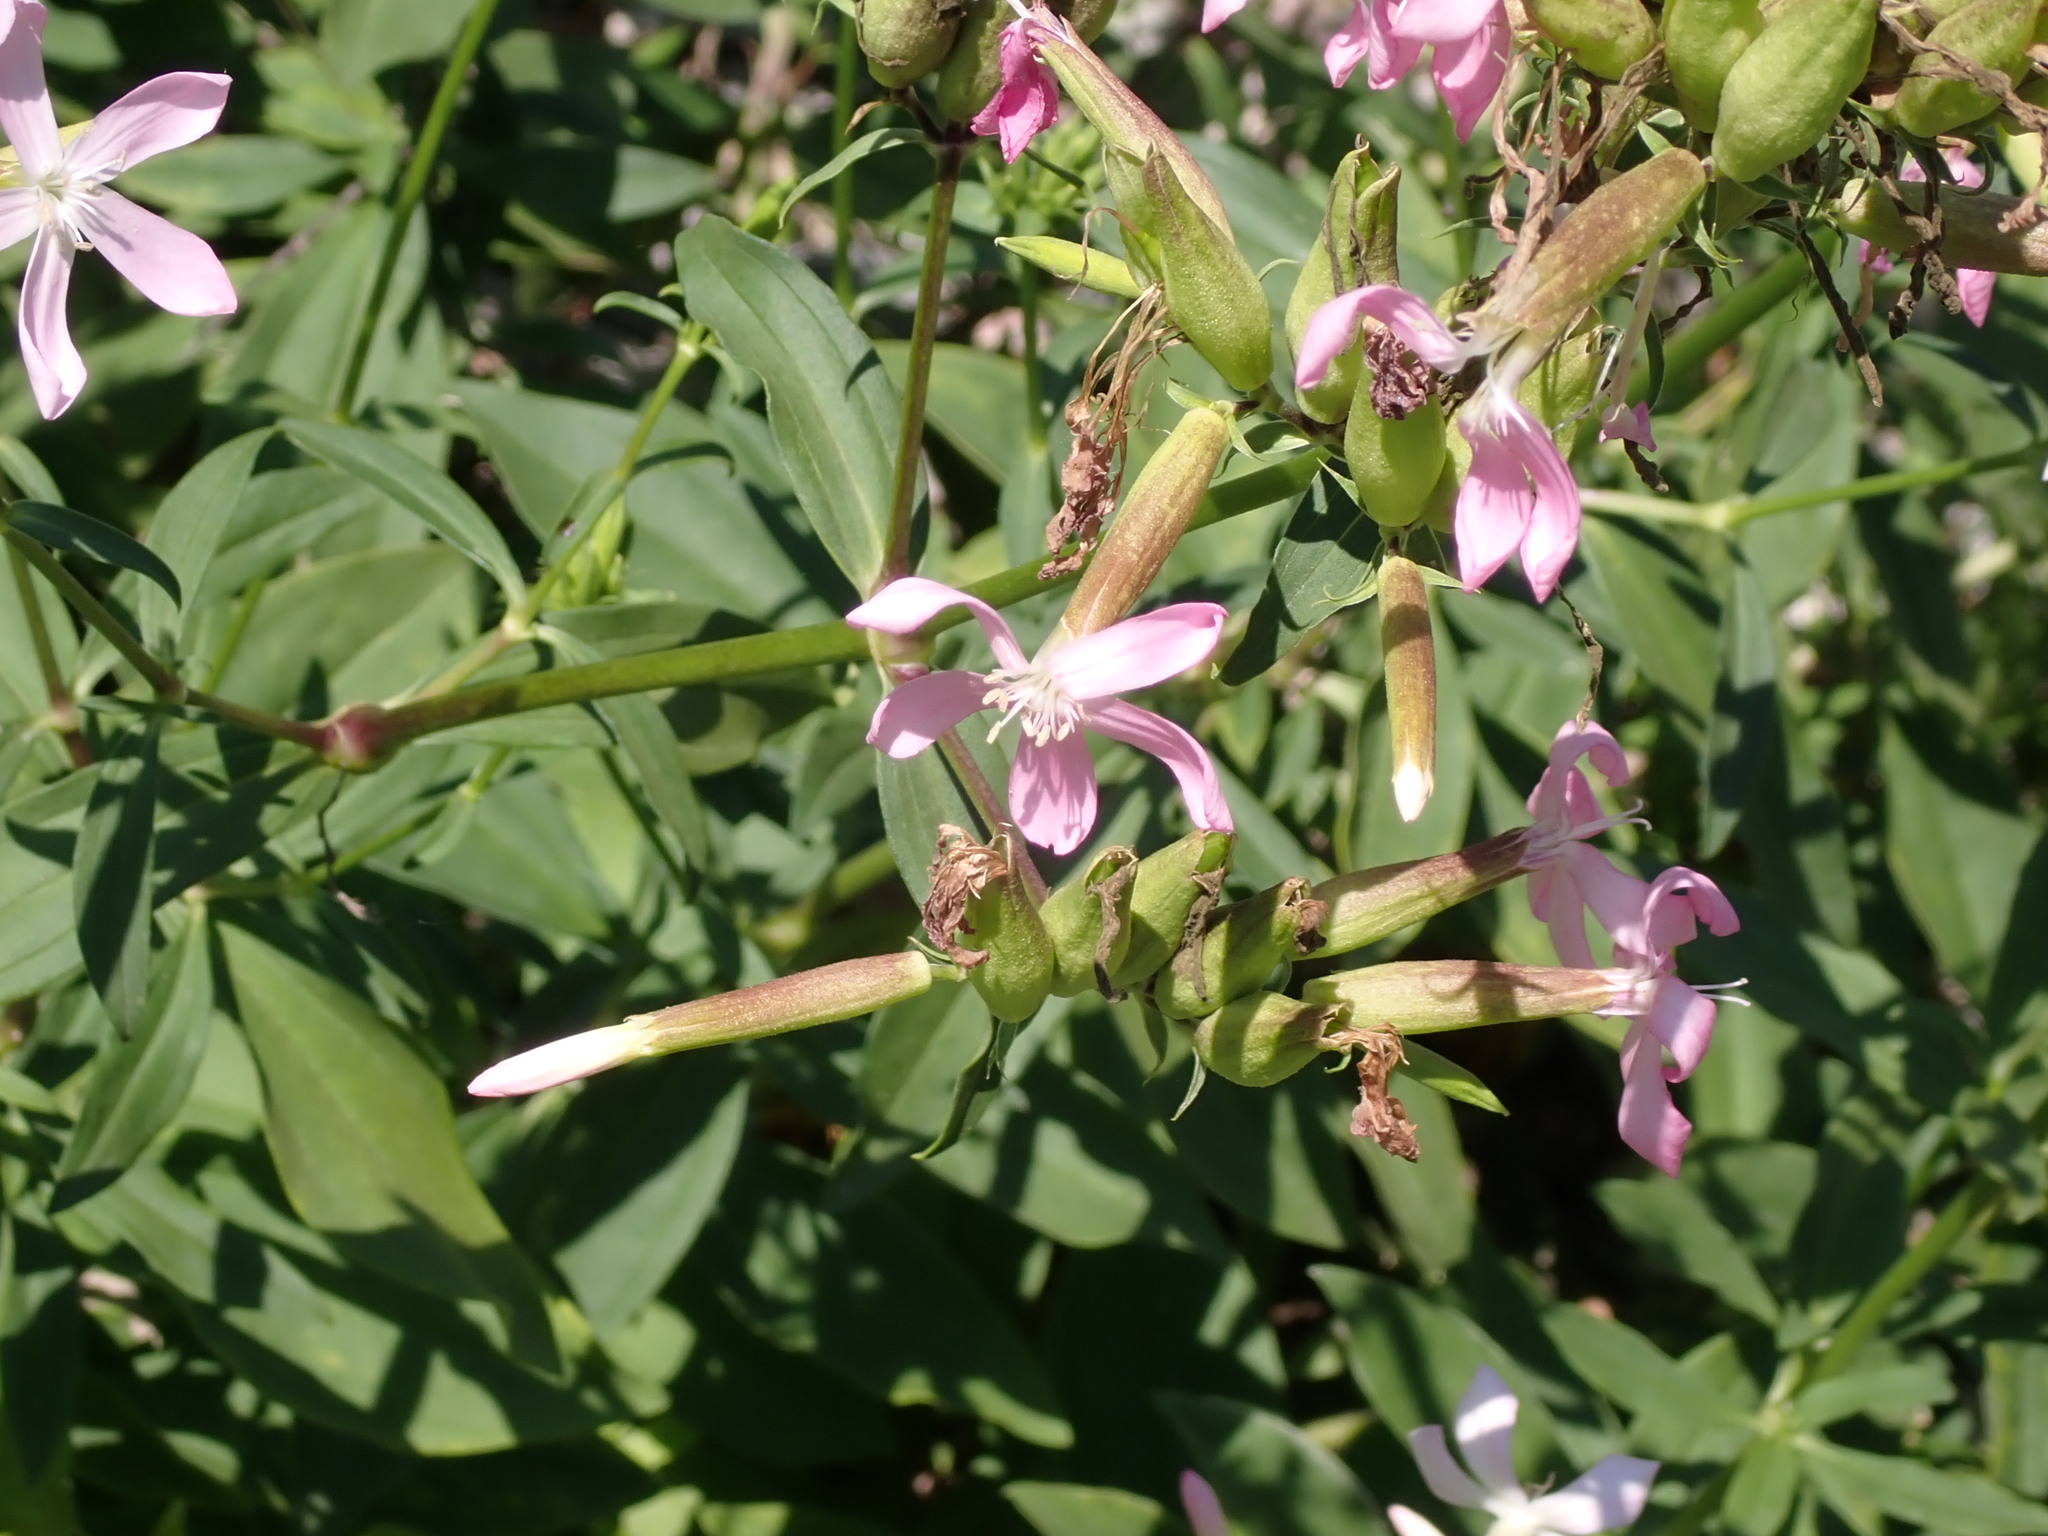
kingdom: Plantae
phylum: Tracheophyta
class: Magnoliopsida
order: Caryophyllales
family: Caryophyllaceae
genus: Saponaria
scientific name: Saponaria officinalis
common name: Soapwort
